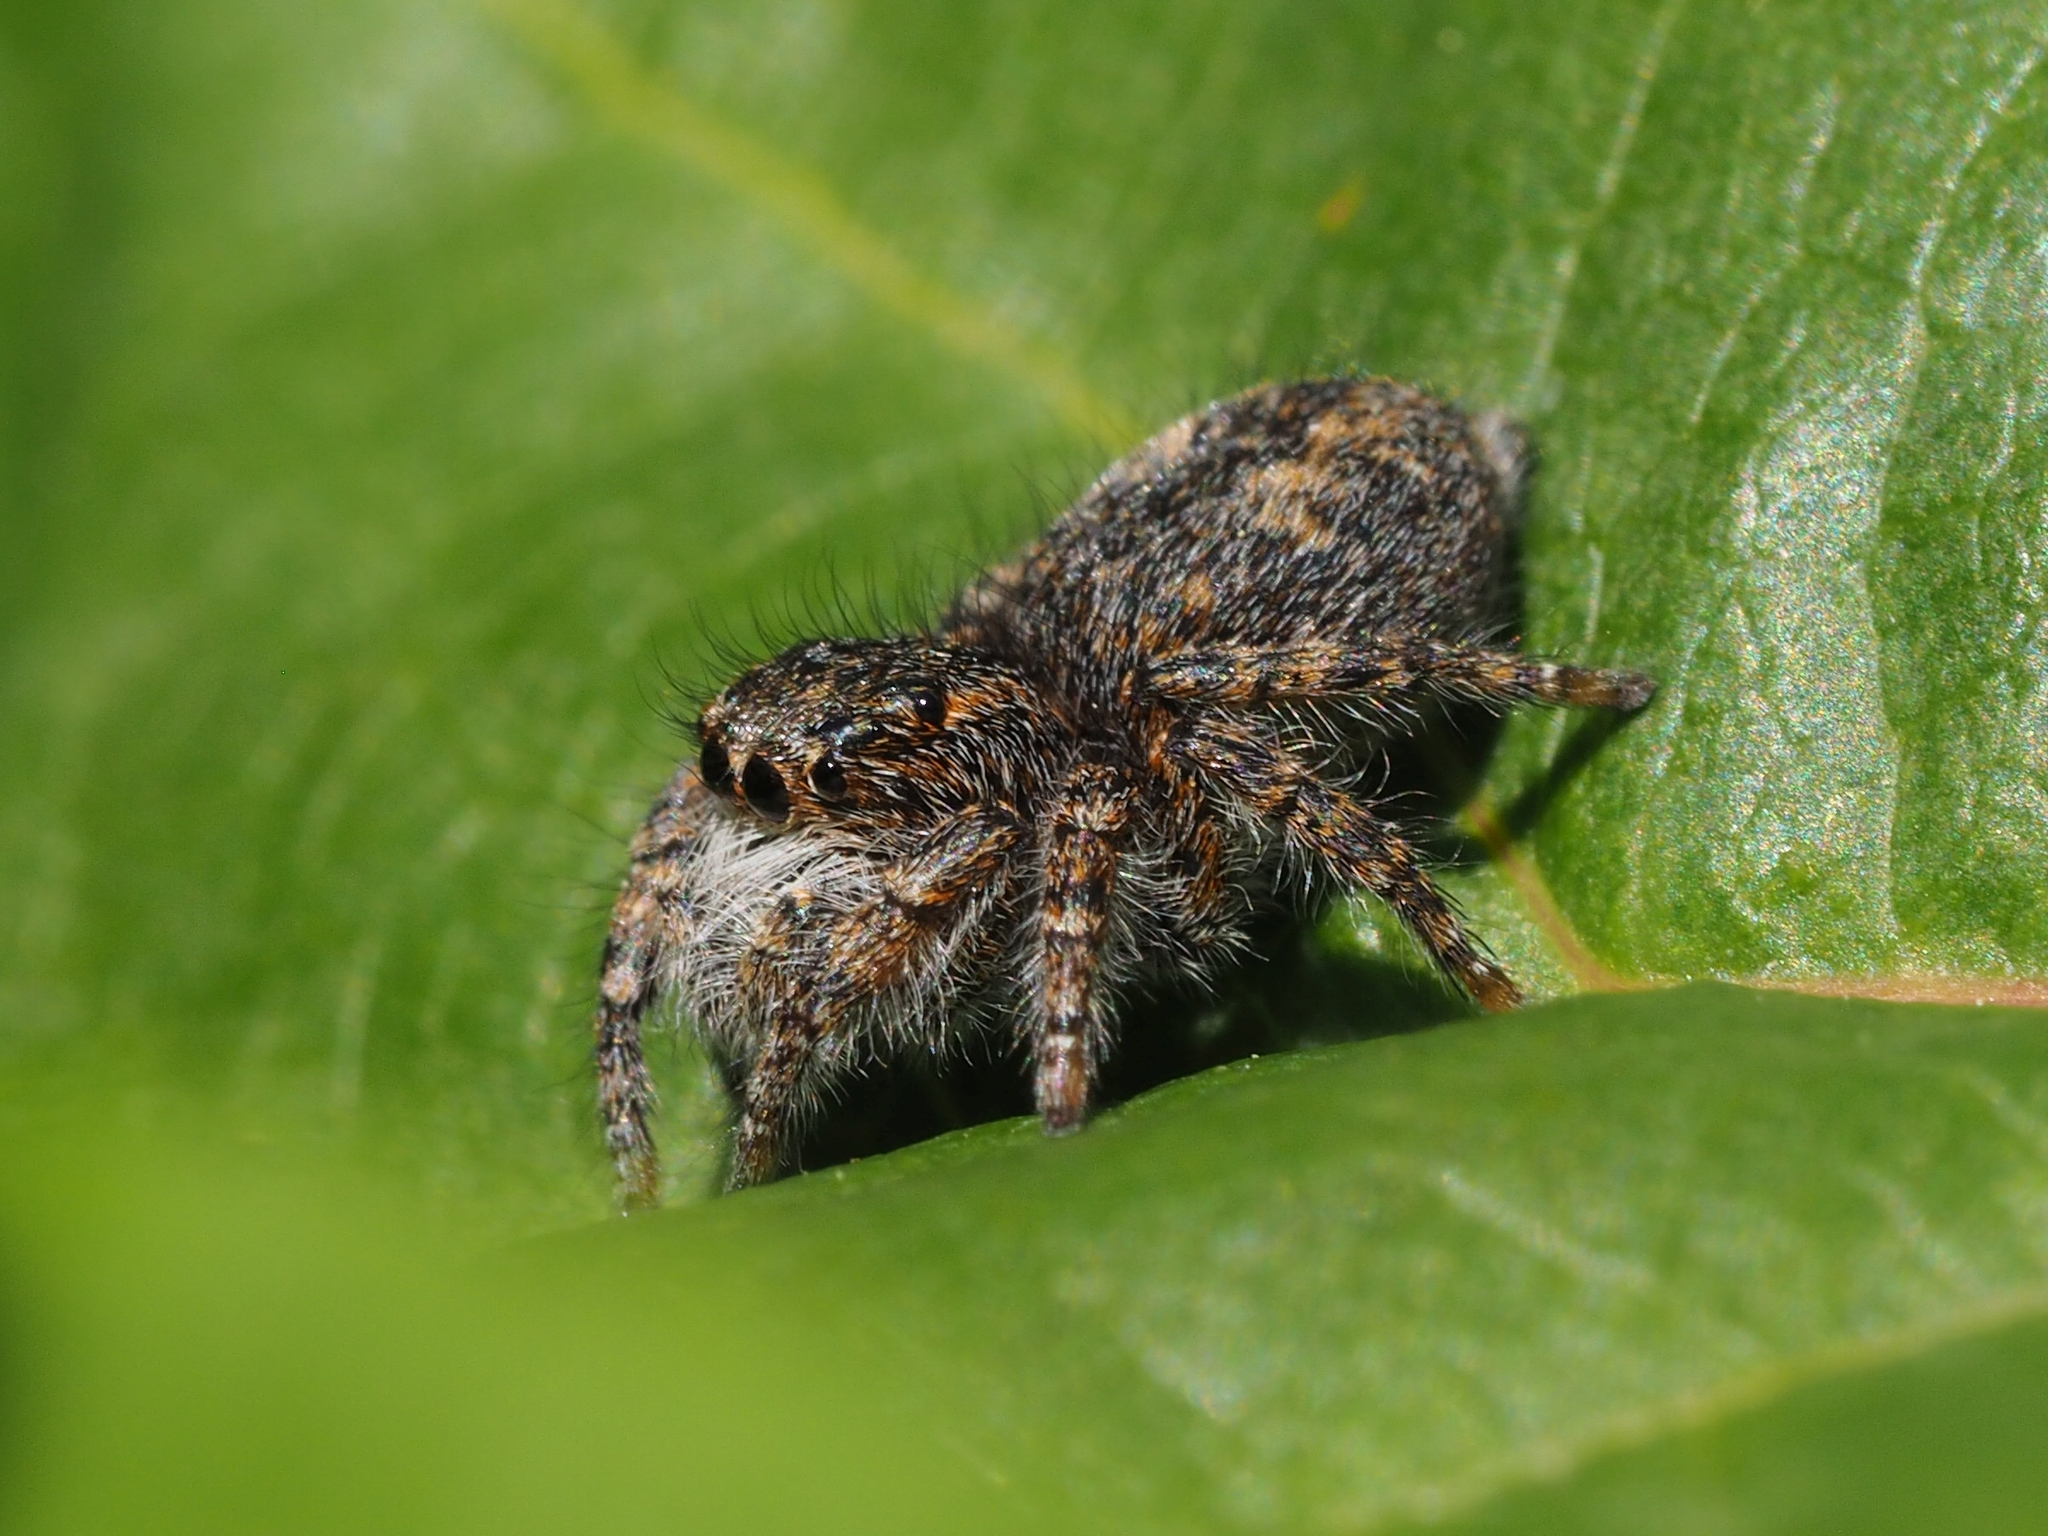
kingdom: Animalia
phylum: Arthropoda
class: Arachnida
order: Araneae
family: Salticidae
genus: Philaeus
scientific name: Philaeus chrysops
